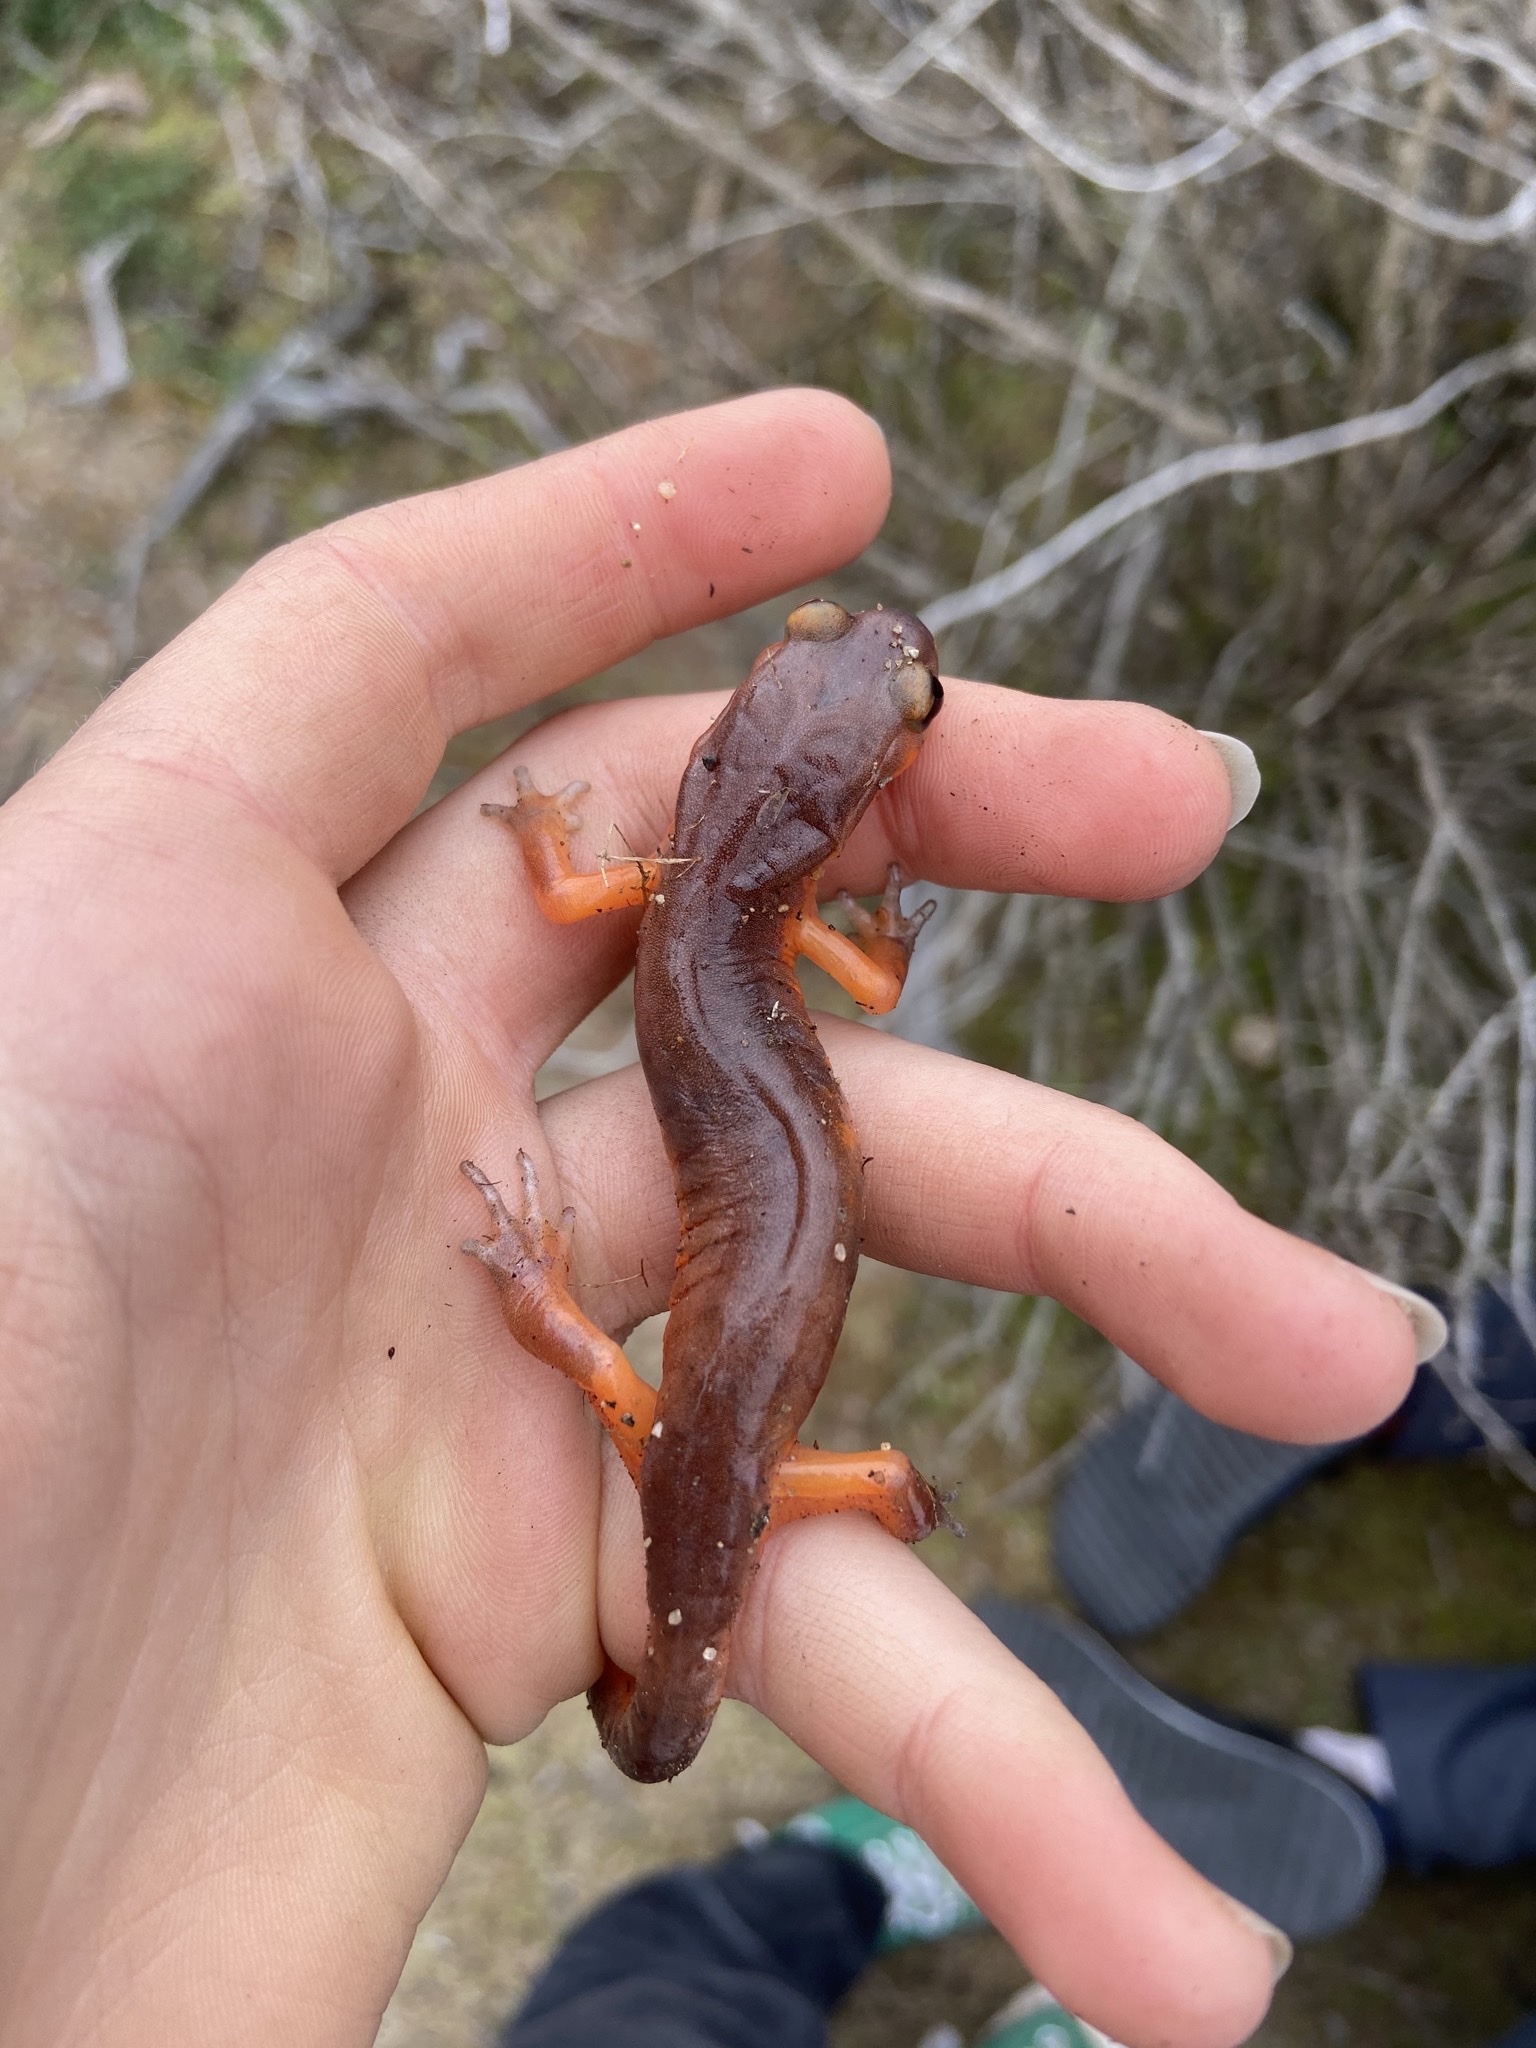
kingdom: Animalia
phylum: Chordata
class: Amphibia
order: Caudata
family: Plethodontidae
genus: Ensatina
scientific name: Ensatina eschscholtzii
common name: Ensatina
